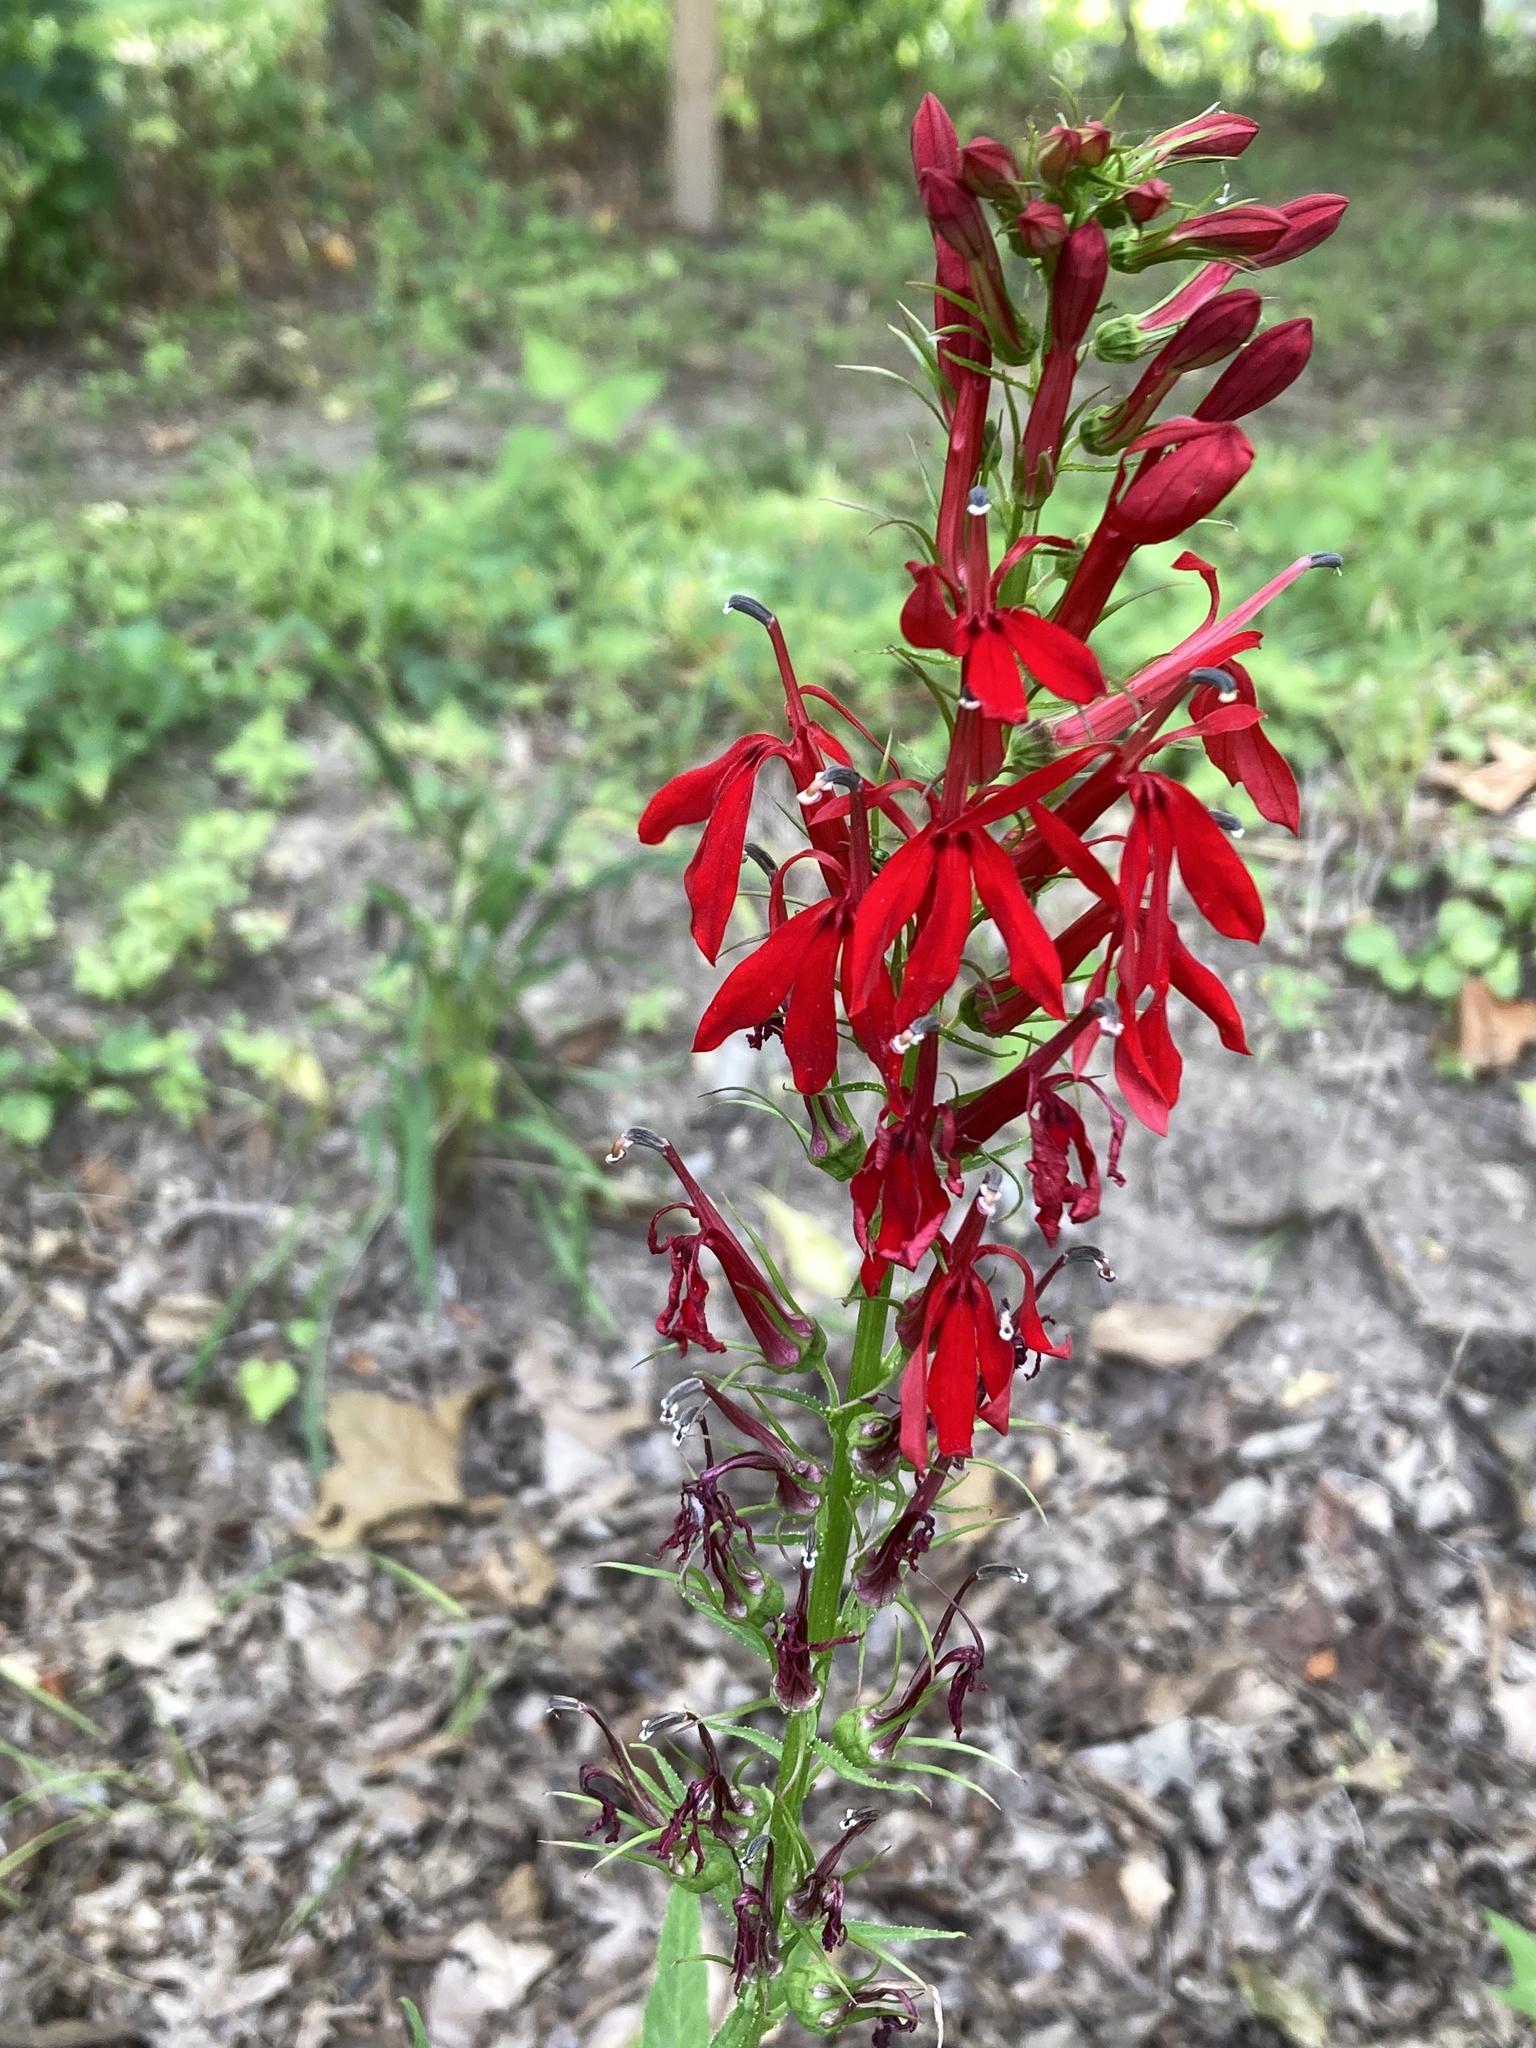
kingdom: Plantae
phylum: Tracheophyta
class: Magnoliopsida
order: Asterales
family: Campanulaceae
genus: Lobelia
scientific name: Lobelia cardinalis
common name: Cardinal flower
